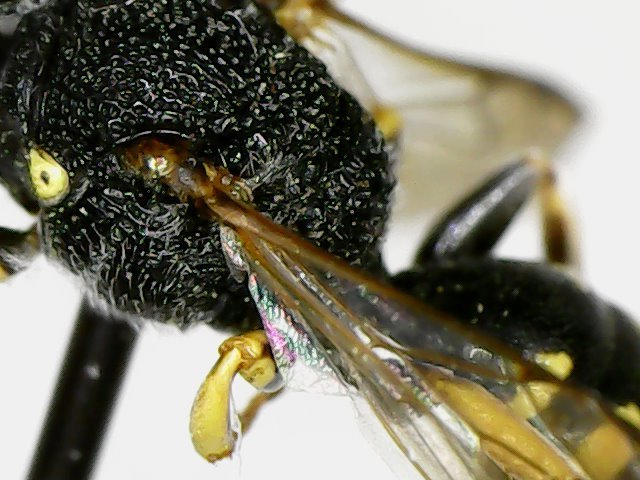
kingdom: Animalia
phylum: Arthropoda
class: Insecta
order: Hymenoptera
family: Crabronidae
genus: Lestica
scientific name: Lestica producticollis
